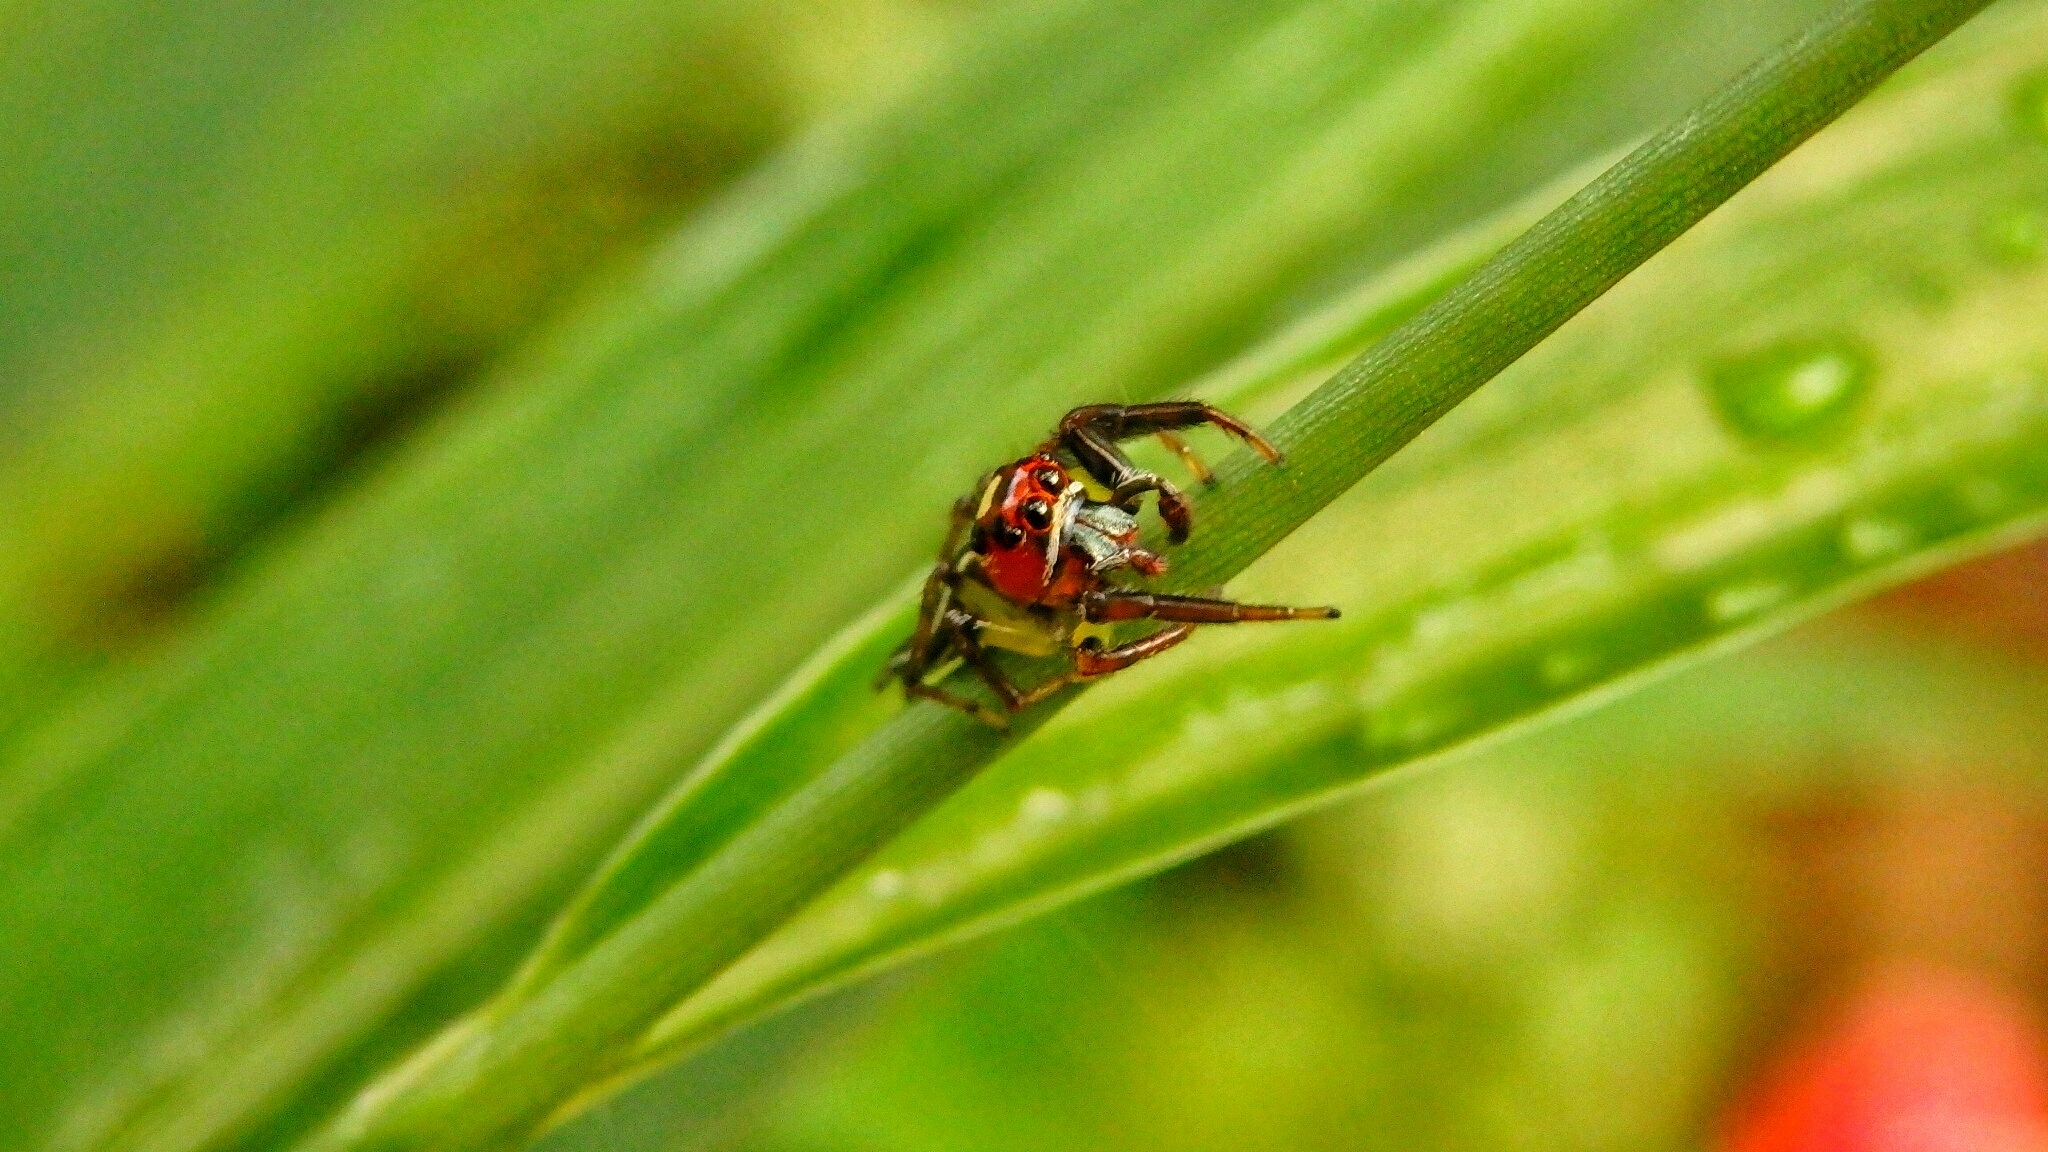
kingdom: Animalia
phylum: Arthropoda
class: Arachnida
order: Araneae
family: Salticidae
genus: Colonus
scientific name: Colonus sylvanus
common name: Jumping spiders
